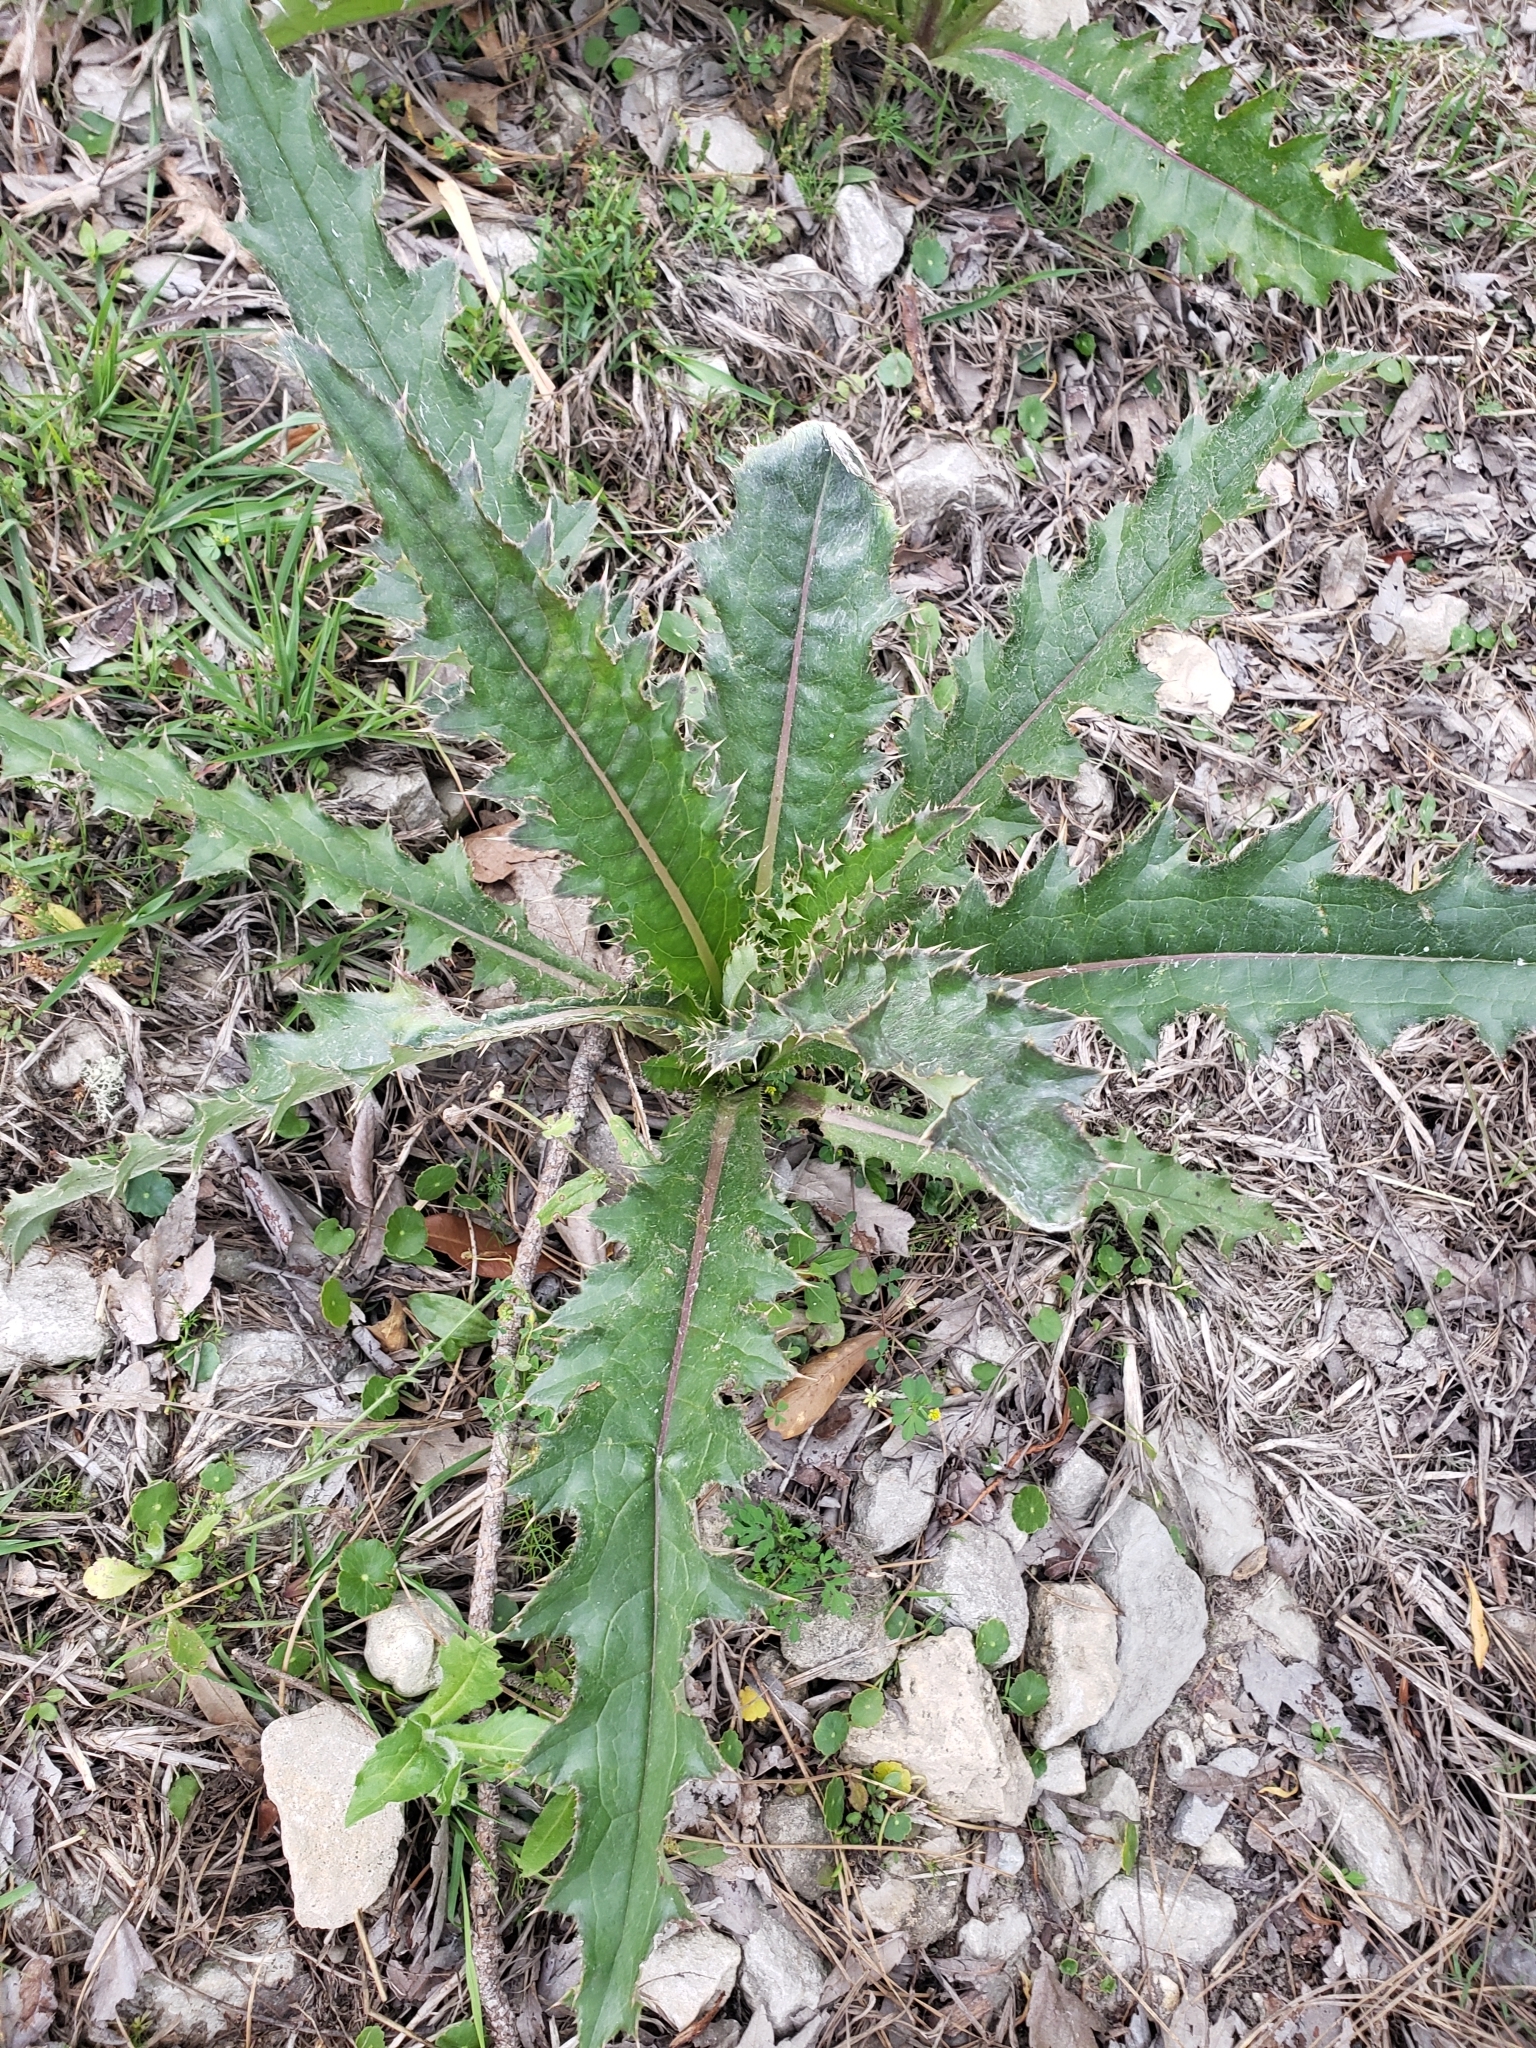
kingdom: Plantae
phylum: Tracheophyta
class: Magnoliopsida
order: Asterales
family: Asteraceae
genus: Cirsium
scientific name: Cirsium horridulum
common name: Bristly thistle
